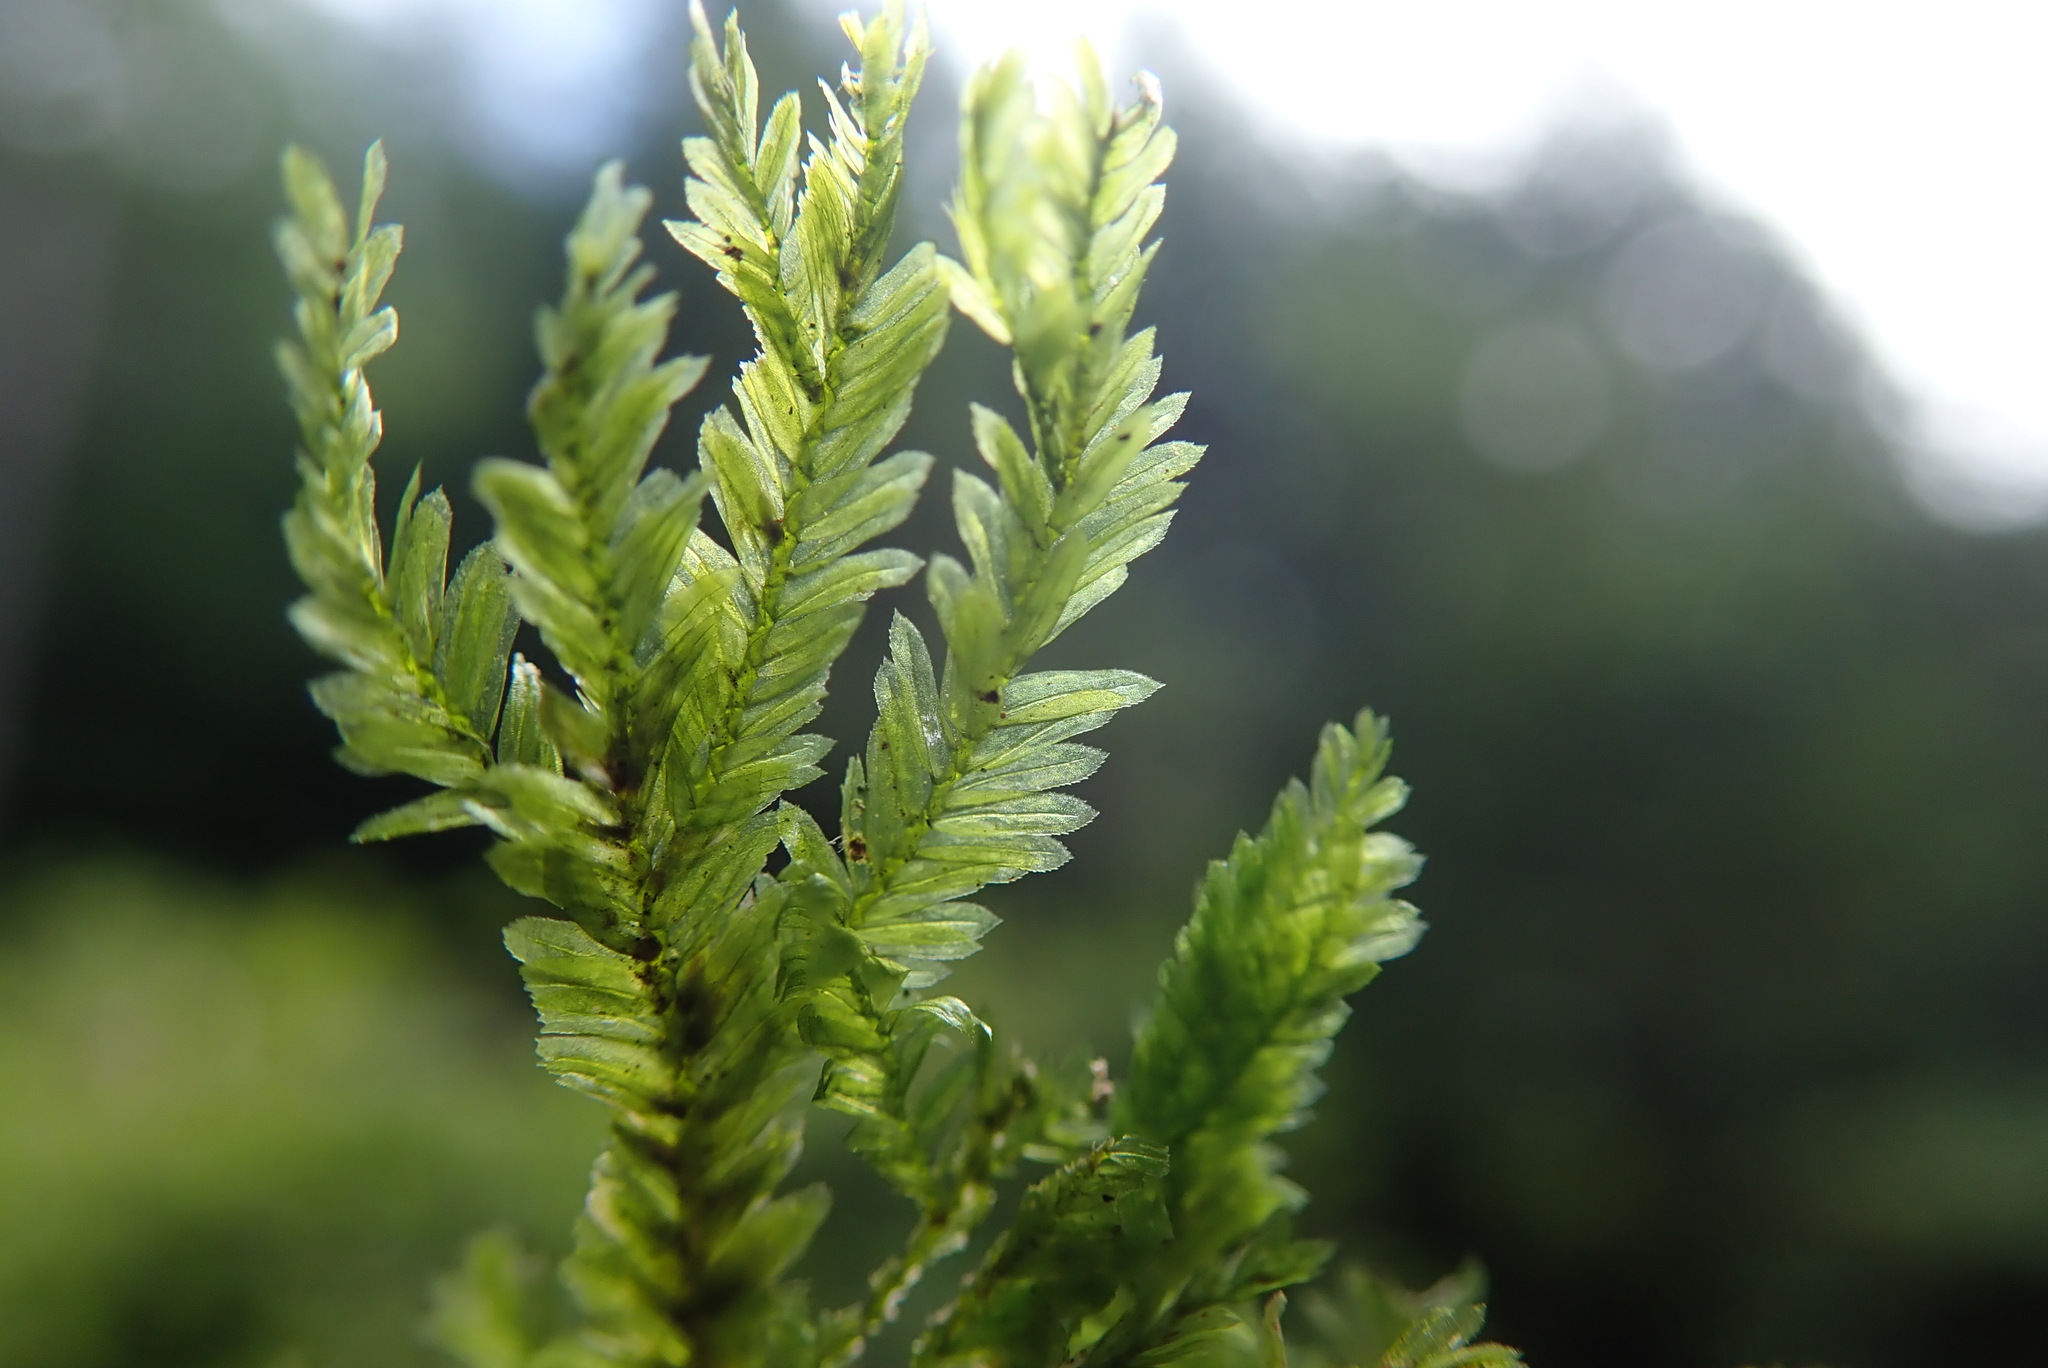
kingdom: Plantae
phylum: Bryophyta
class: Bryopsida
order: Hypnales
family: Neckeraceae
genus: Dannorrisia
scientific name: Dannorrisia bigelovii
